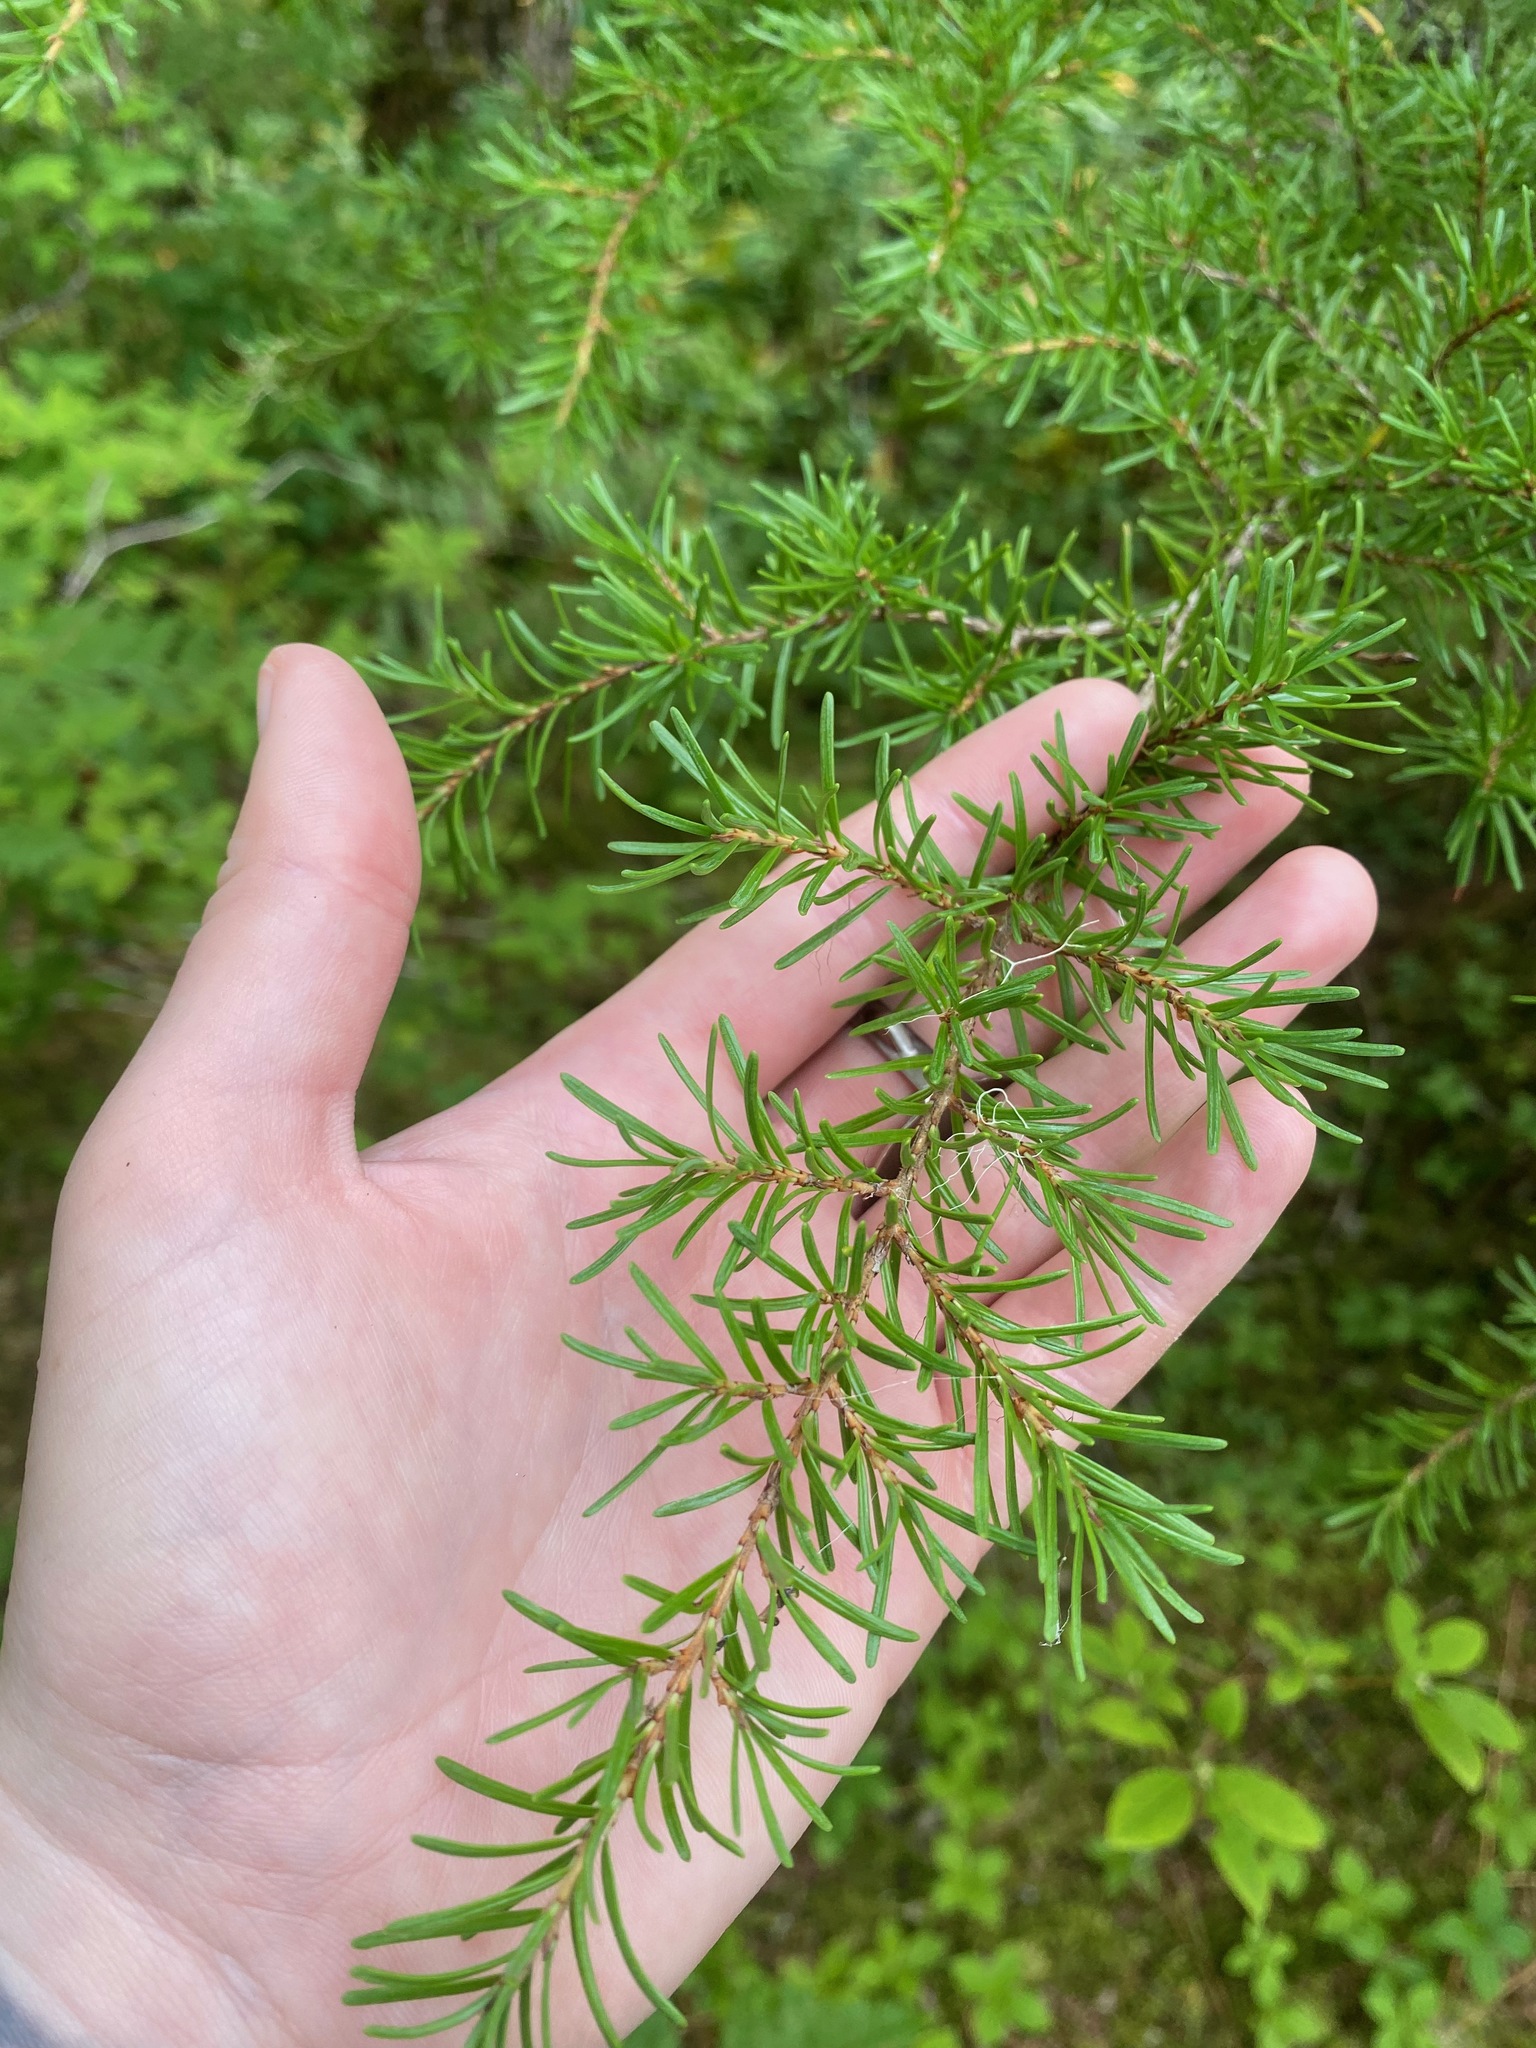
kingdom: Plantae
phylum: Tracheophyta
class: Pinopsida
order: Pinales
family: Pinaceae
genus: Tsuga
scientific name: Tsuga mertensiana
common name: Mountain hemlock
